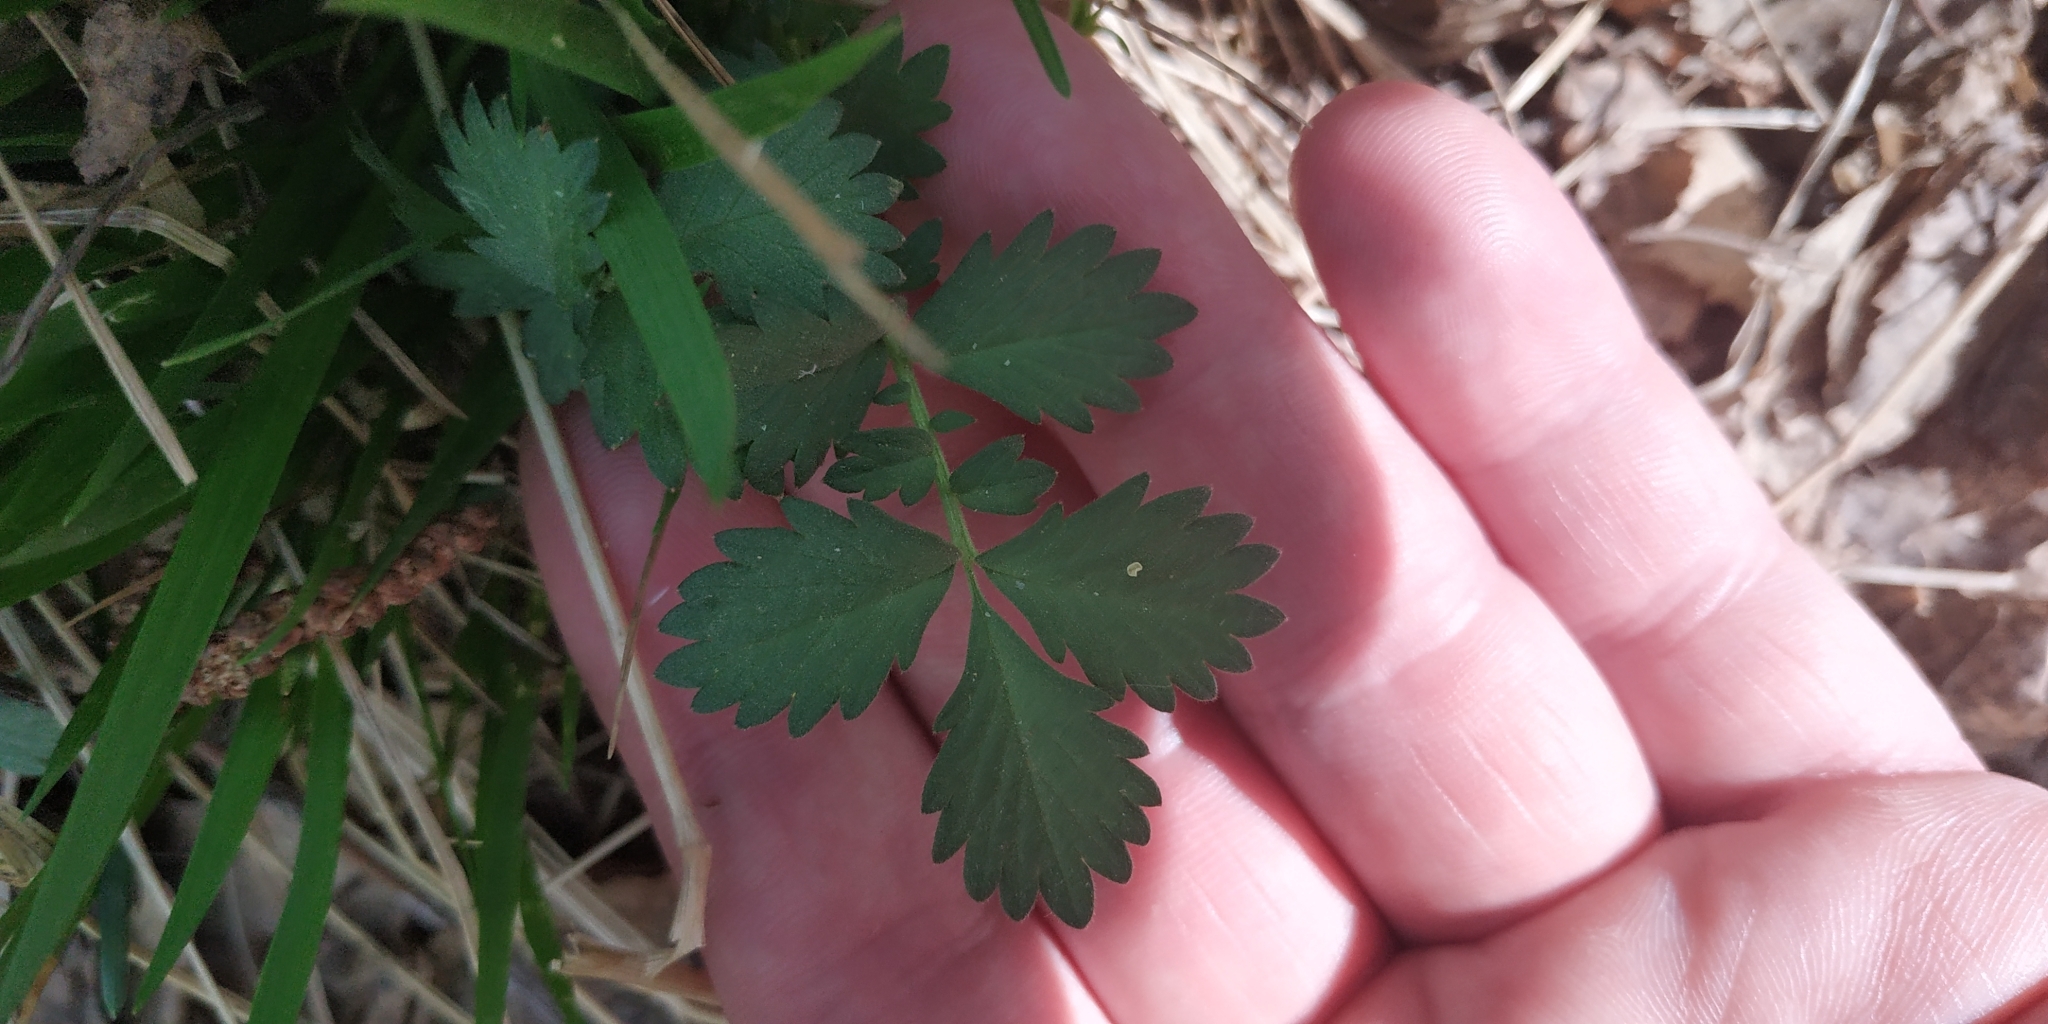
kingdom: Plantae
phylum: Tracheophyta
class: Magnoliopsida
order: Rosales
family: Rosaceae
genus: Agrimonia
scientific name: Agrimonia pilosa
